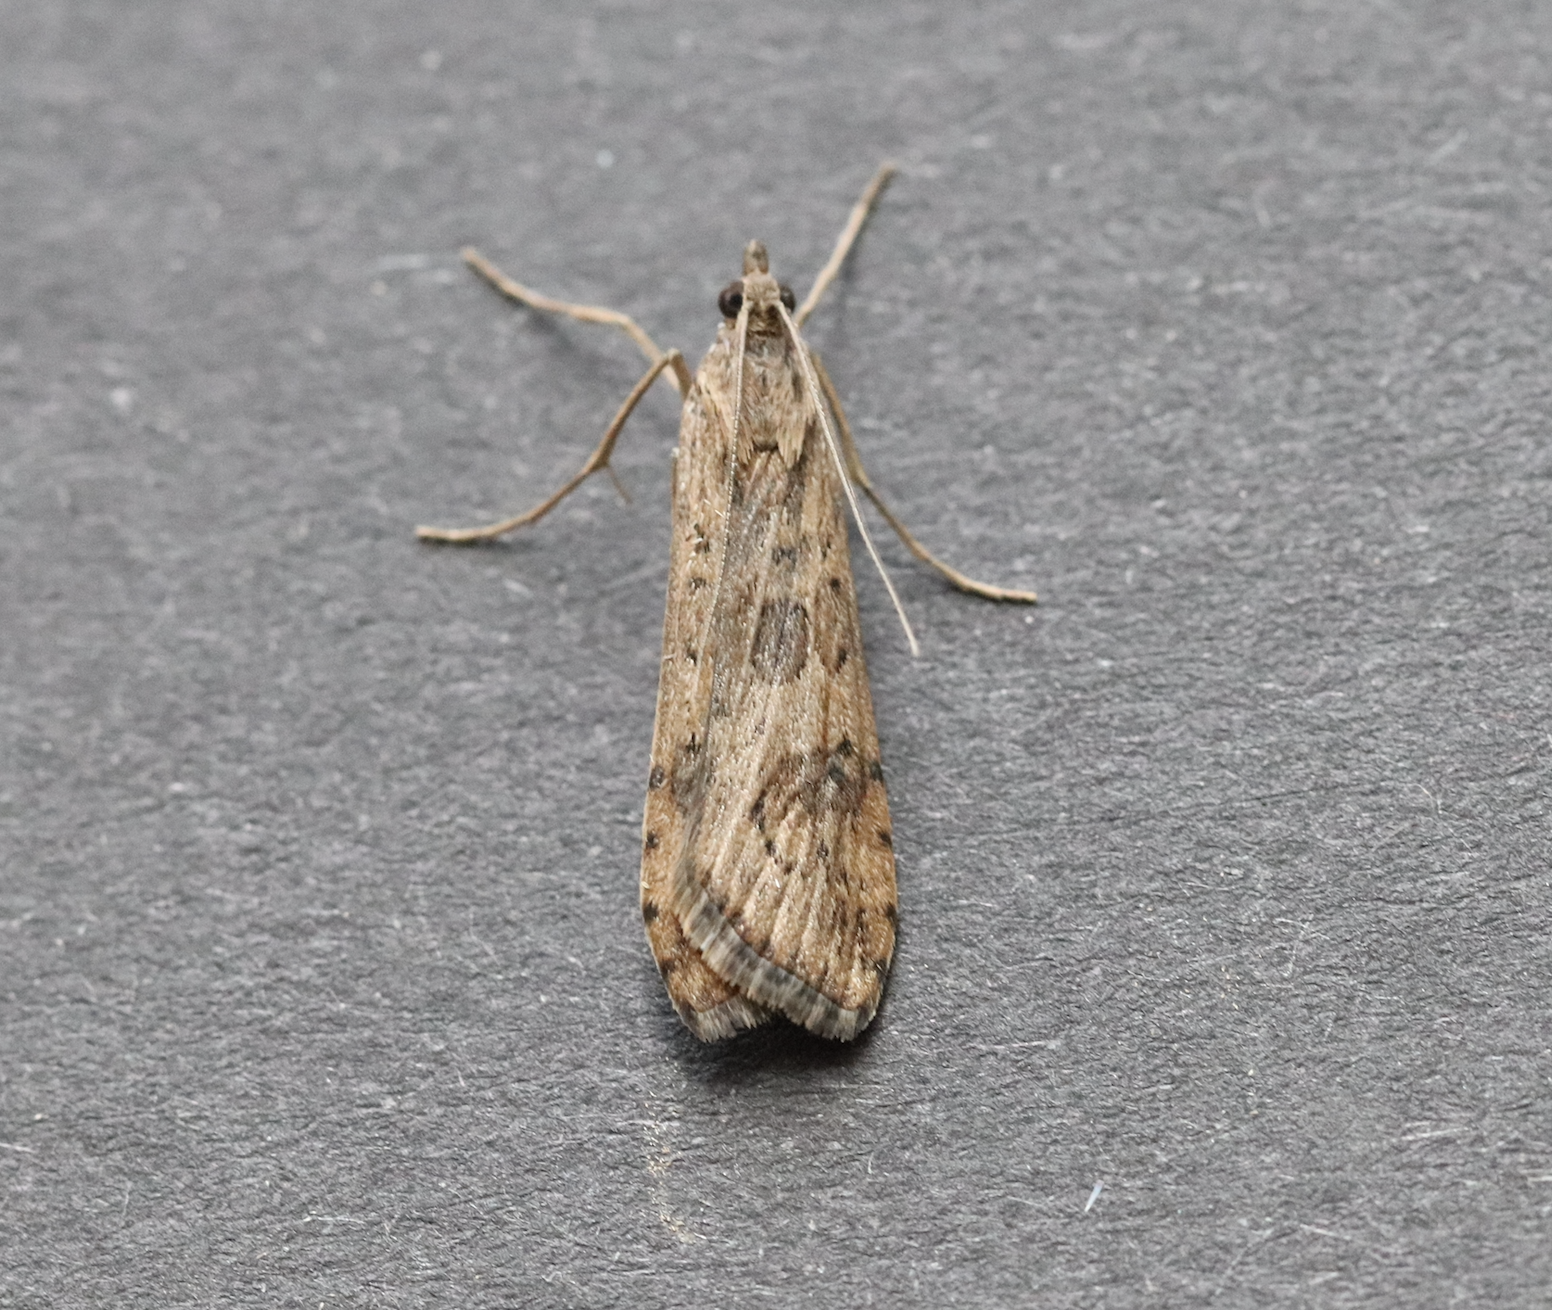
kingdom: Animalia
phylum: Arthropoda
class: Insecta
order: Lepidoptera
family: Crambidae
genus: Nomophila
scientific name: Nomophila noctuella
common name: Rush veneer
